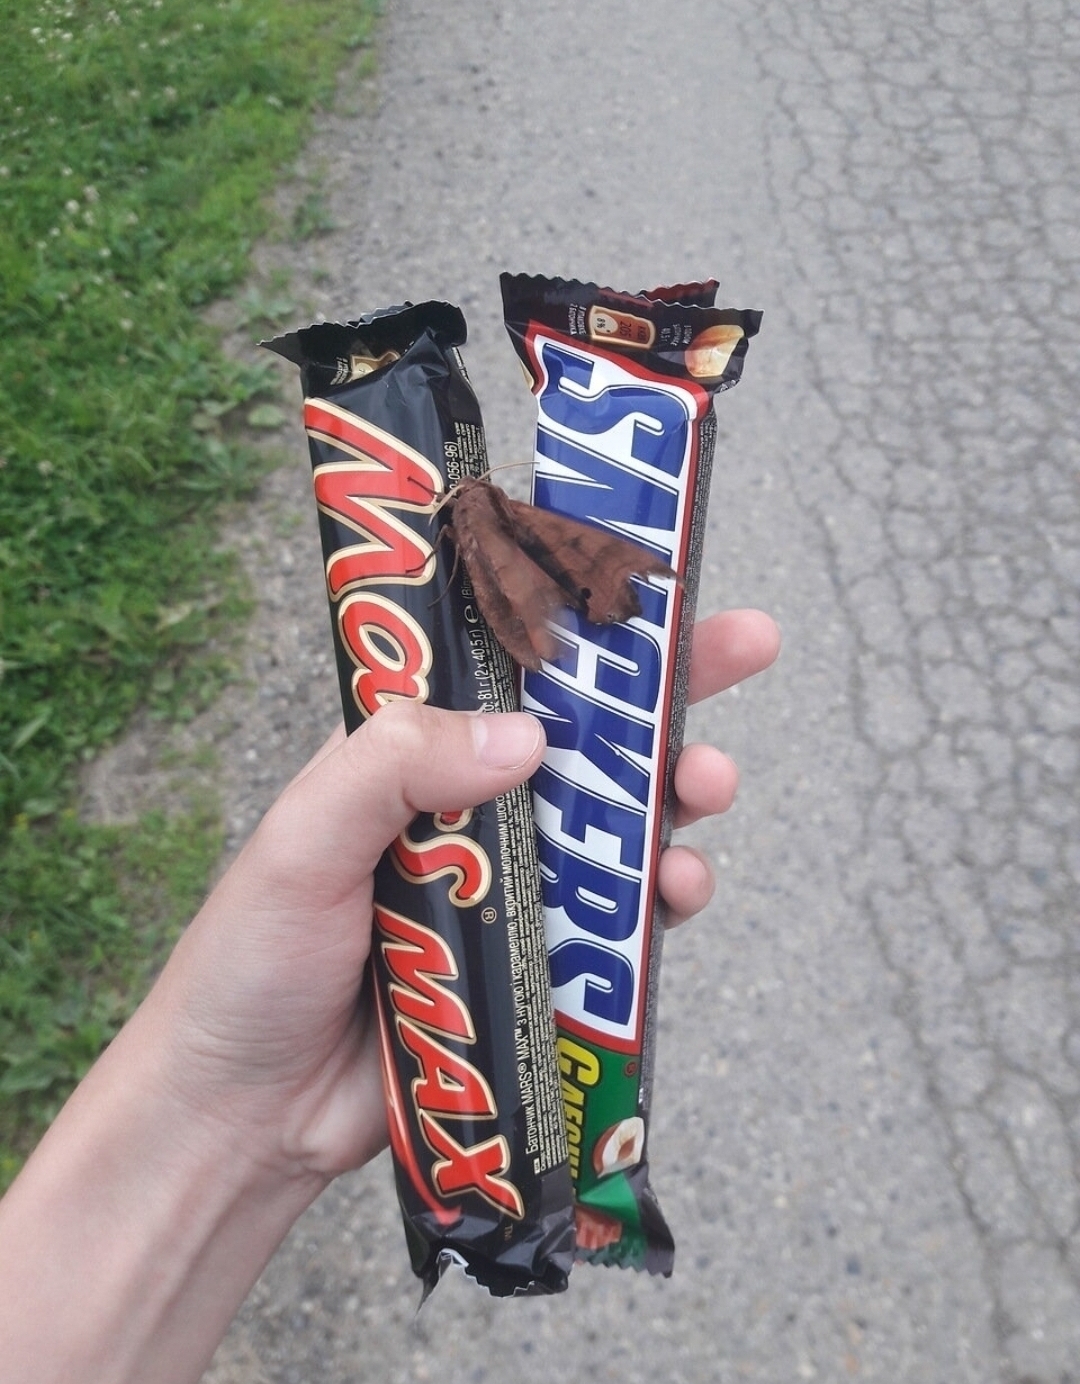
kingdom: Animalia
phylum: Arthropoda
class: Insecta
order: Lepidoptera
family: Sphingidae
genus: Marumba
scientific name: Marumba gaschkewitschii
